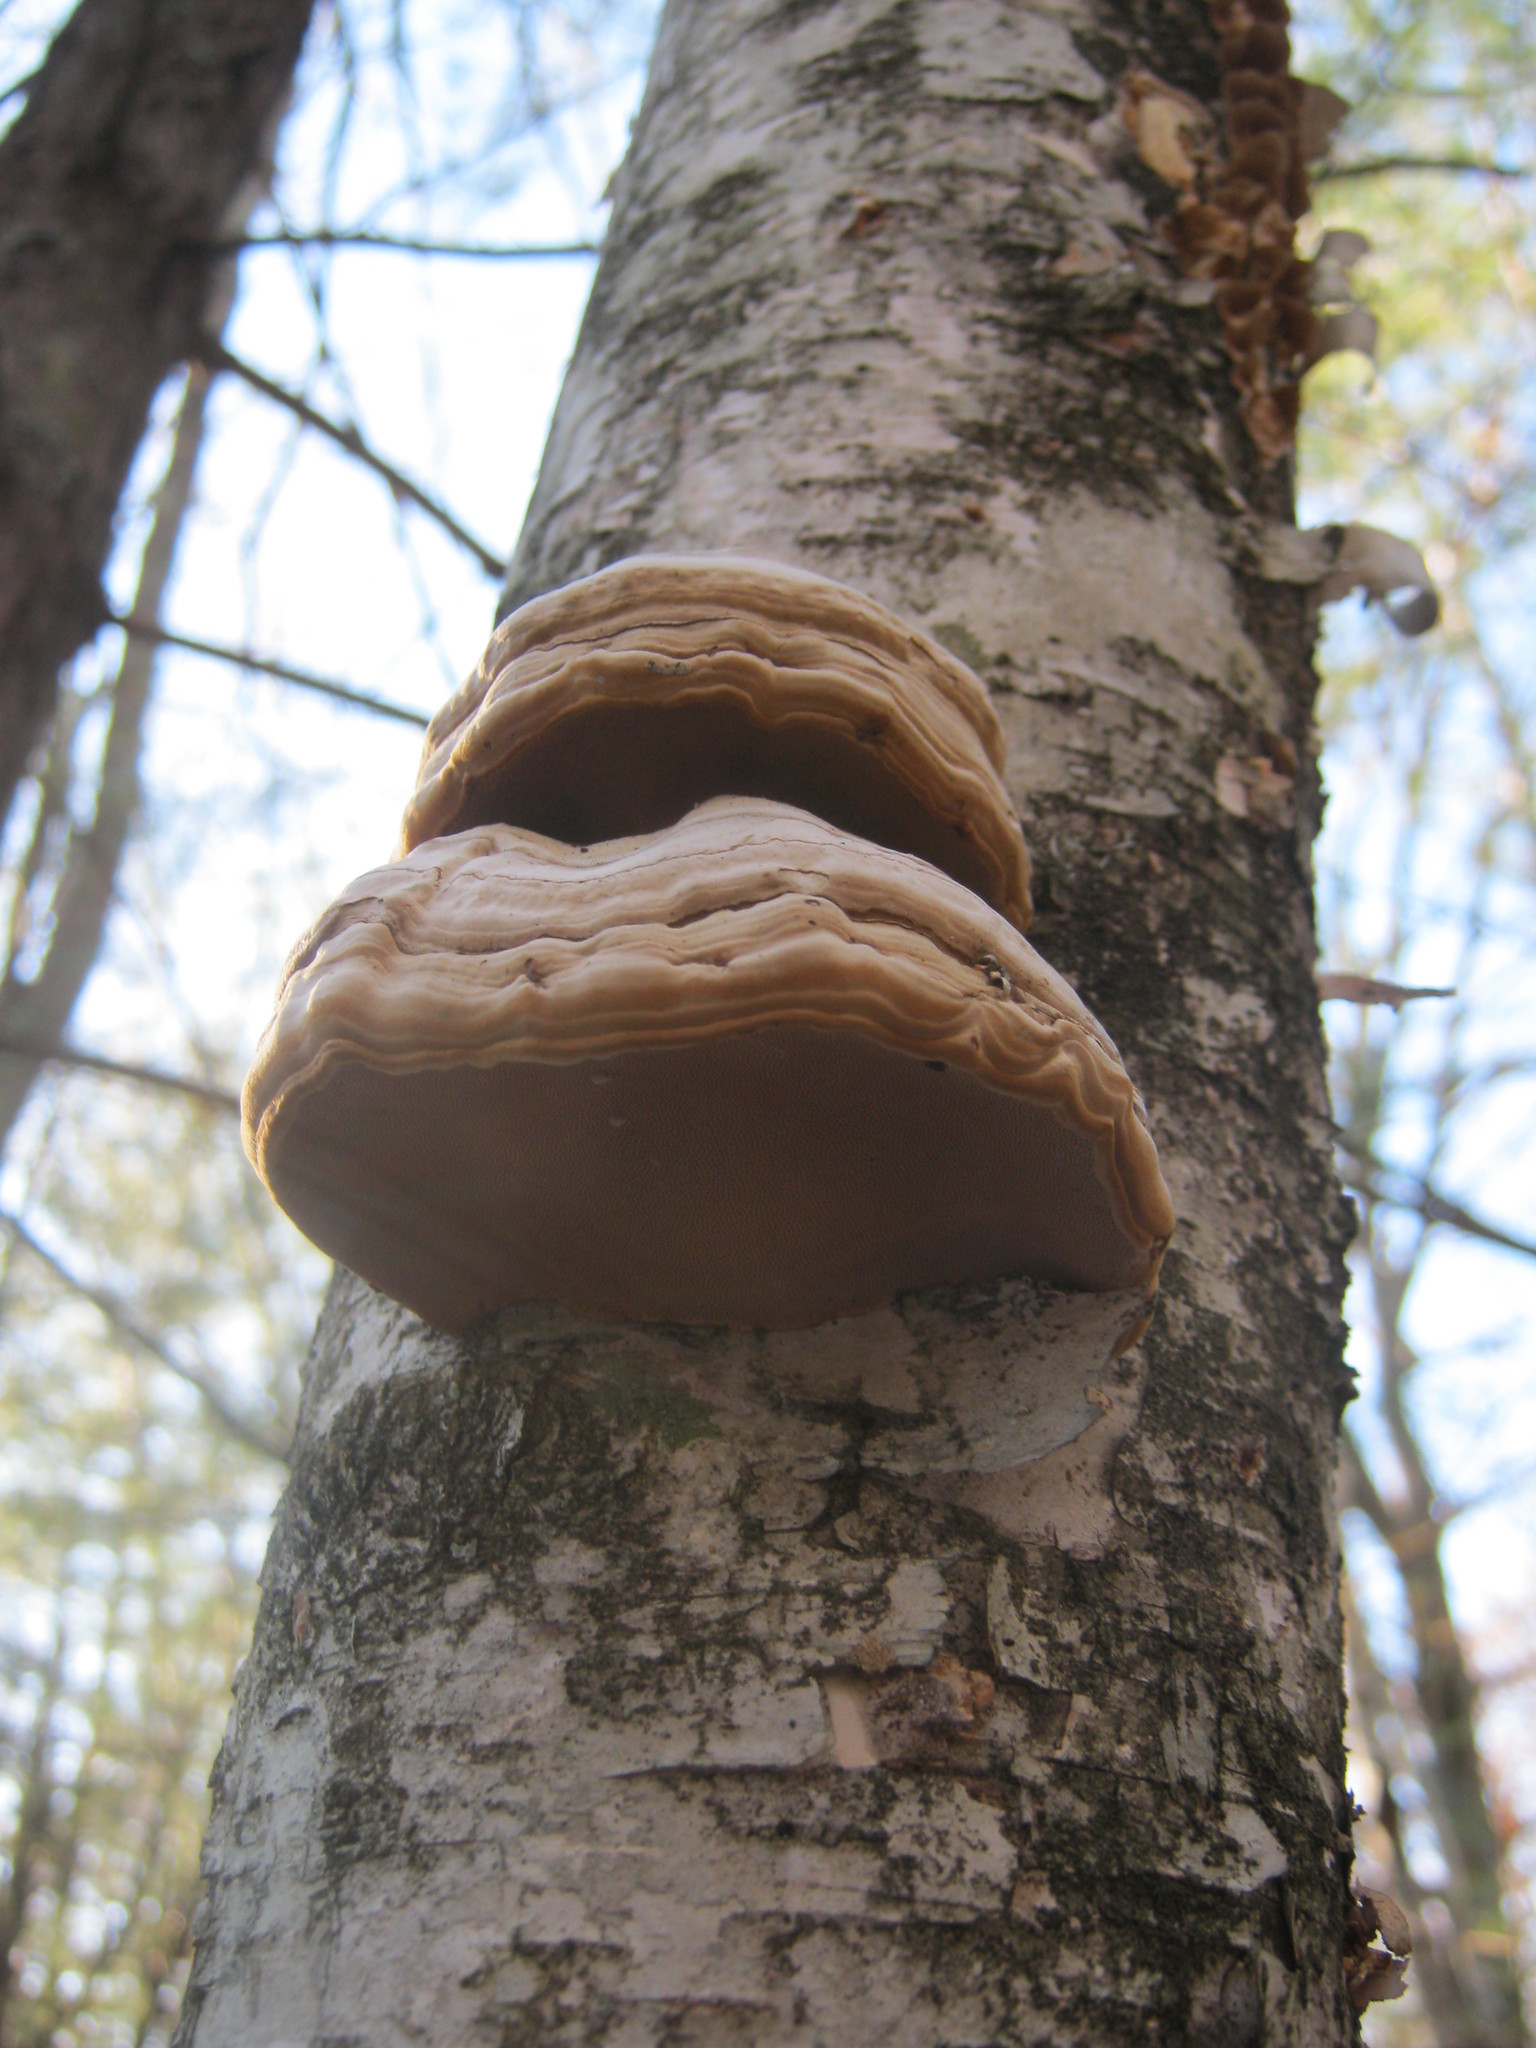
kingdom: Fungi
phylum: Basidiomycota
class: Agaricomycetes
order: Polyporales
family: Polyporaceae
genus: Fomes
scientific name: Fomes fomentarius
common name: Hoof fungus
